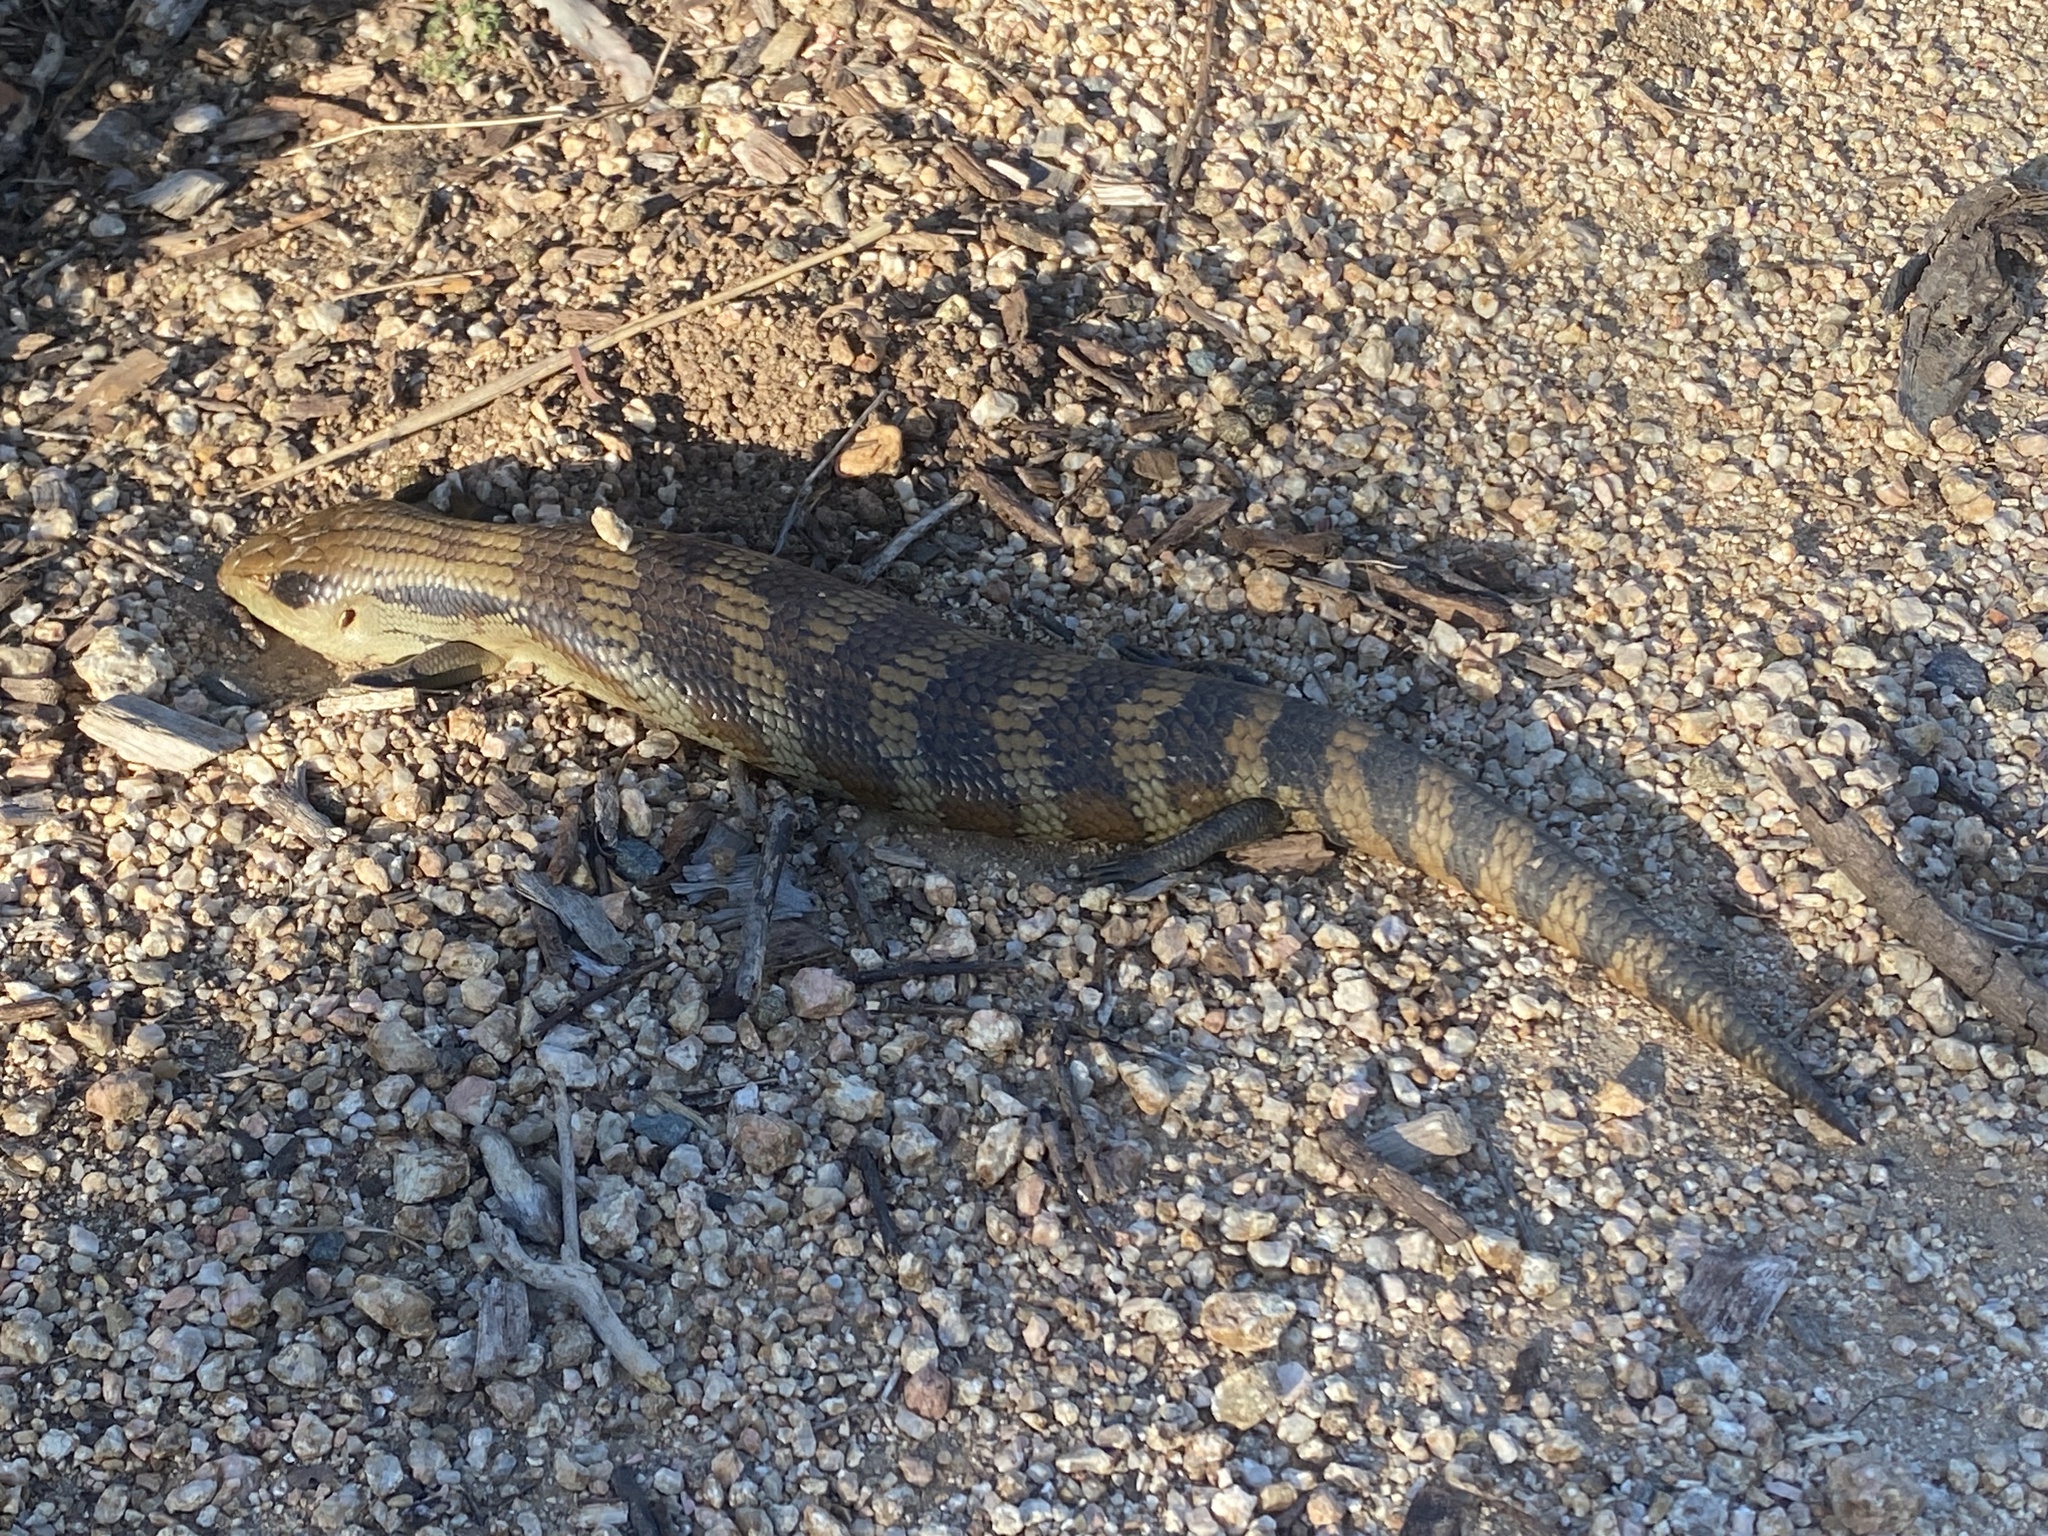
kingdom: Animalia
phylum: Chordata
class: Squamata
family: Scincidae
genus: Tiliqua
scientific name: Tiliqua scincoides
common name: Common bluetongue
